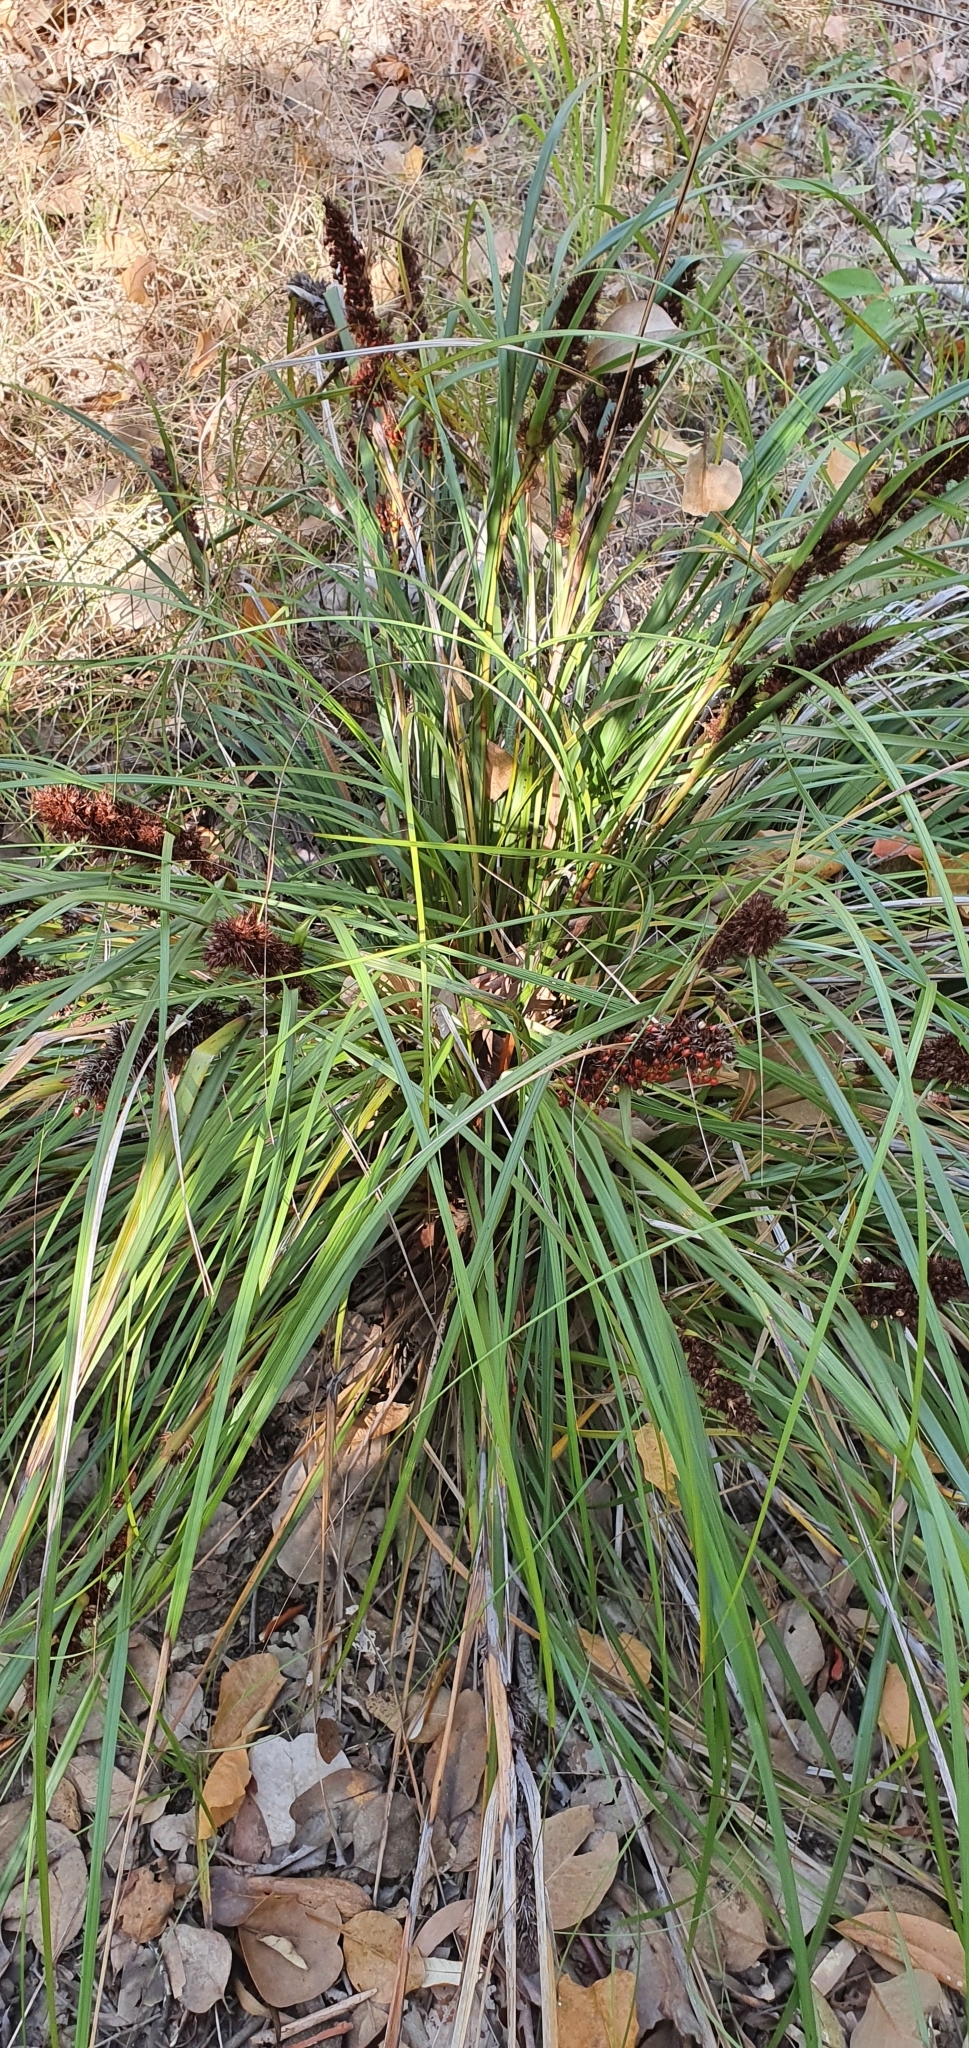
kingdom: Plantae
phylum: Tracheophyta
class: Liliopsida
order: Poales
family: Cyperaceae
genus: Gahnia
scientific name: Gahnia aspera
